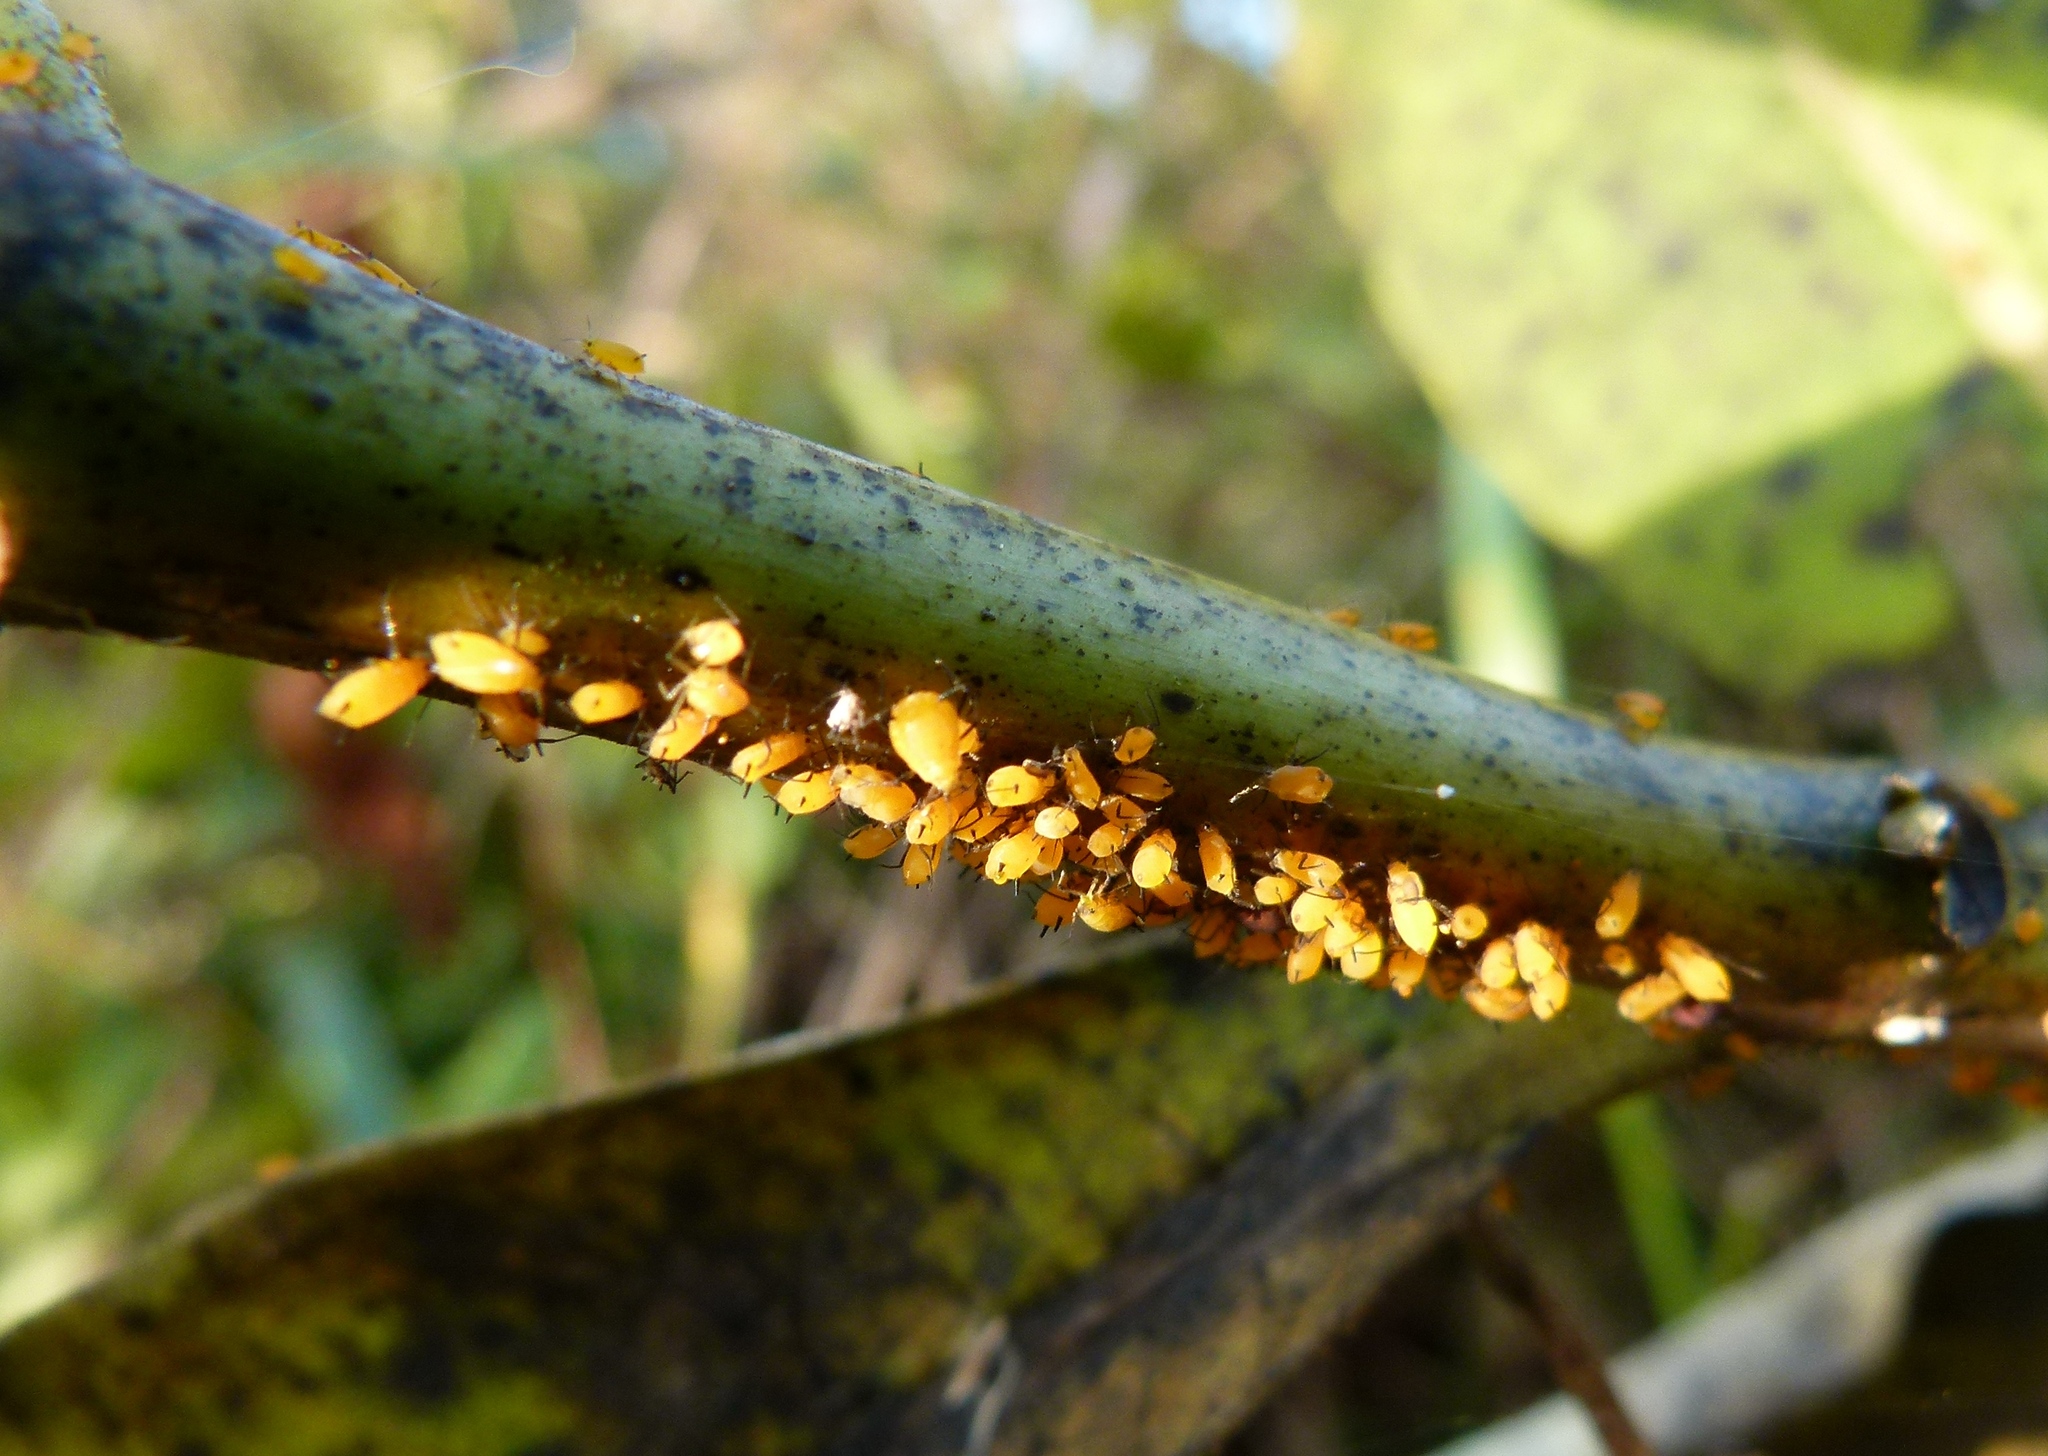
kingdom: Animalia
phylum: Arthropoda
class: Insecta
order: Hemiptera
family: Aphididae
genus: Aphis
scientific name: Aphis nerii
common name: Oleander aphid
